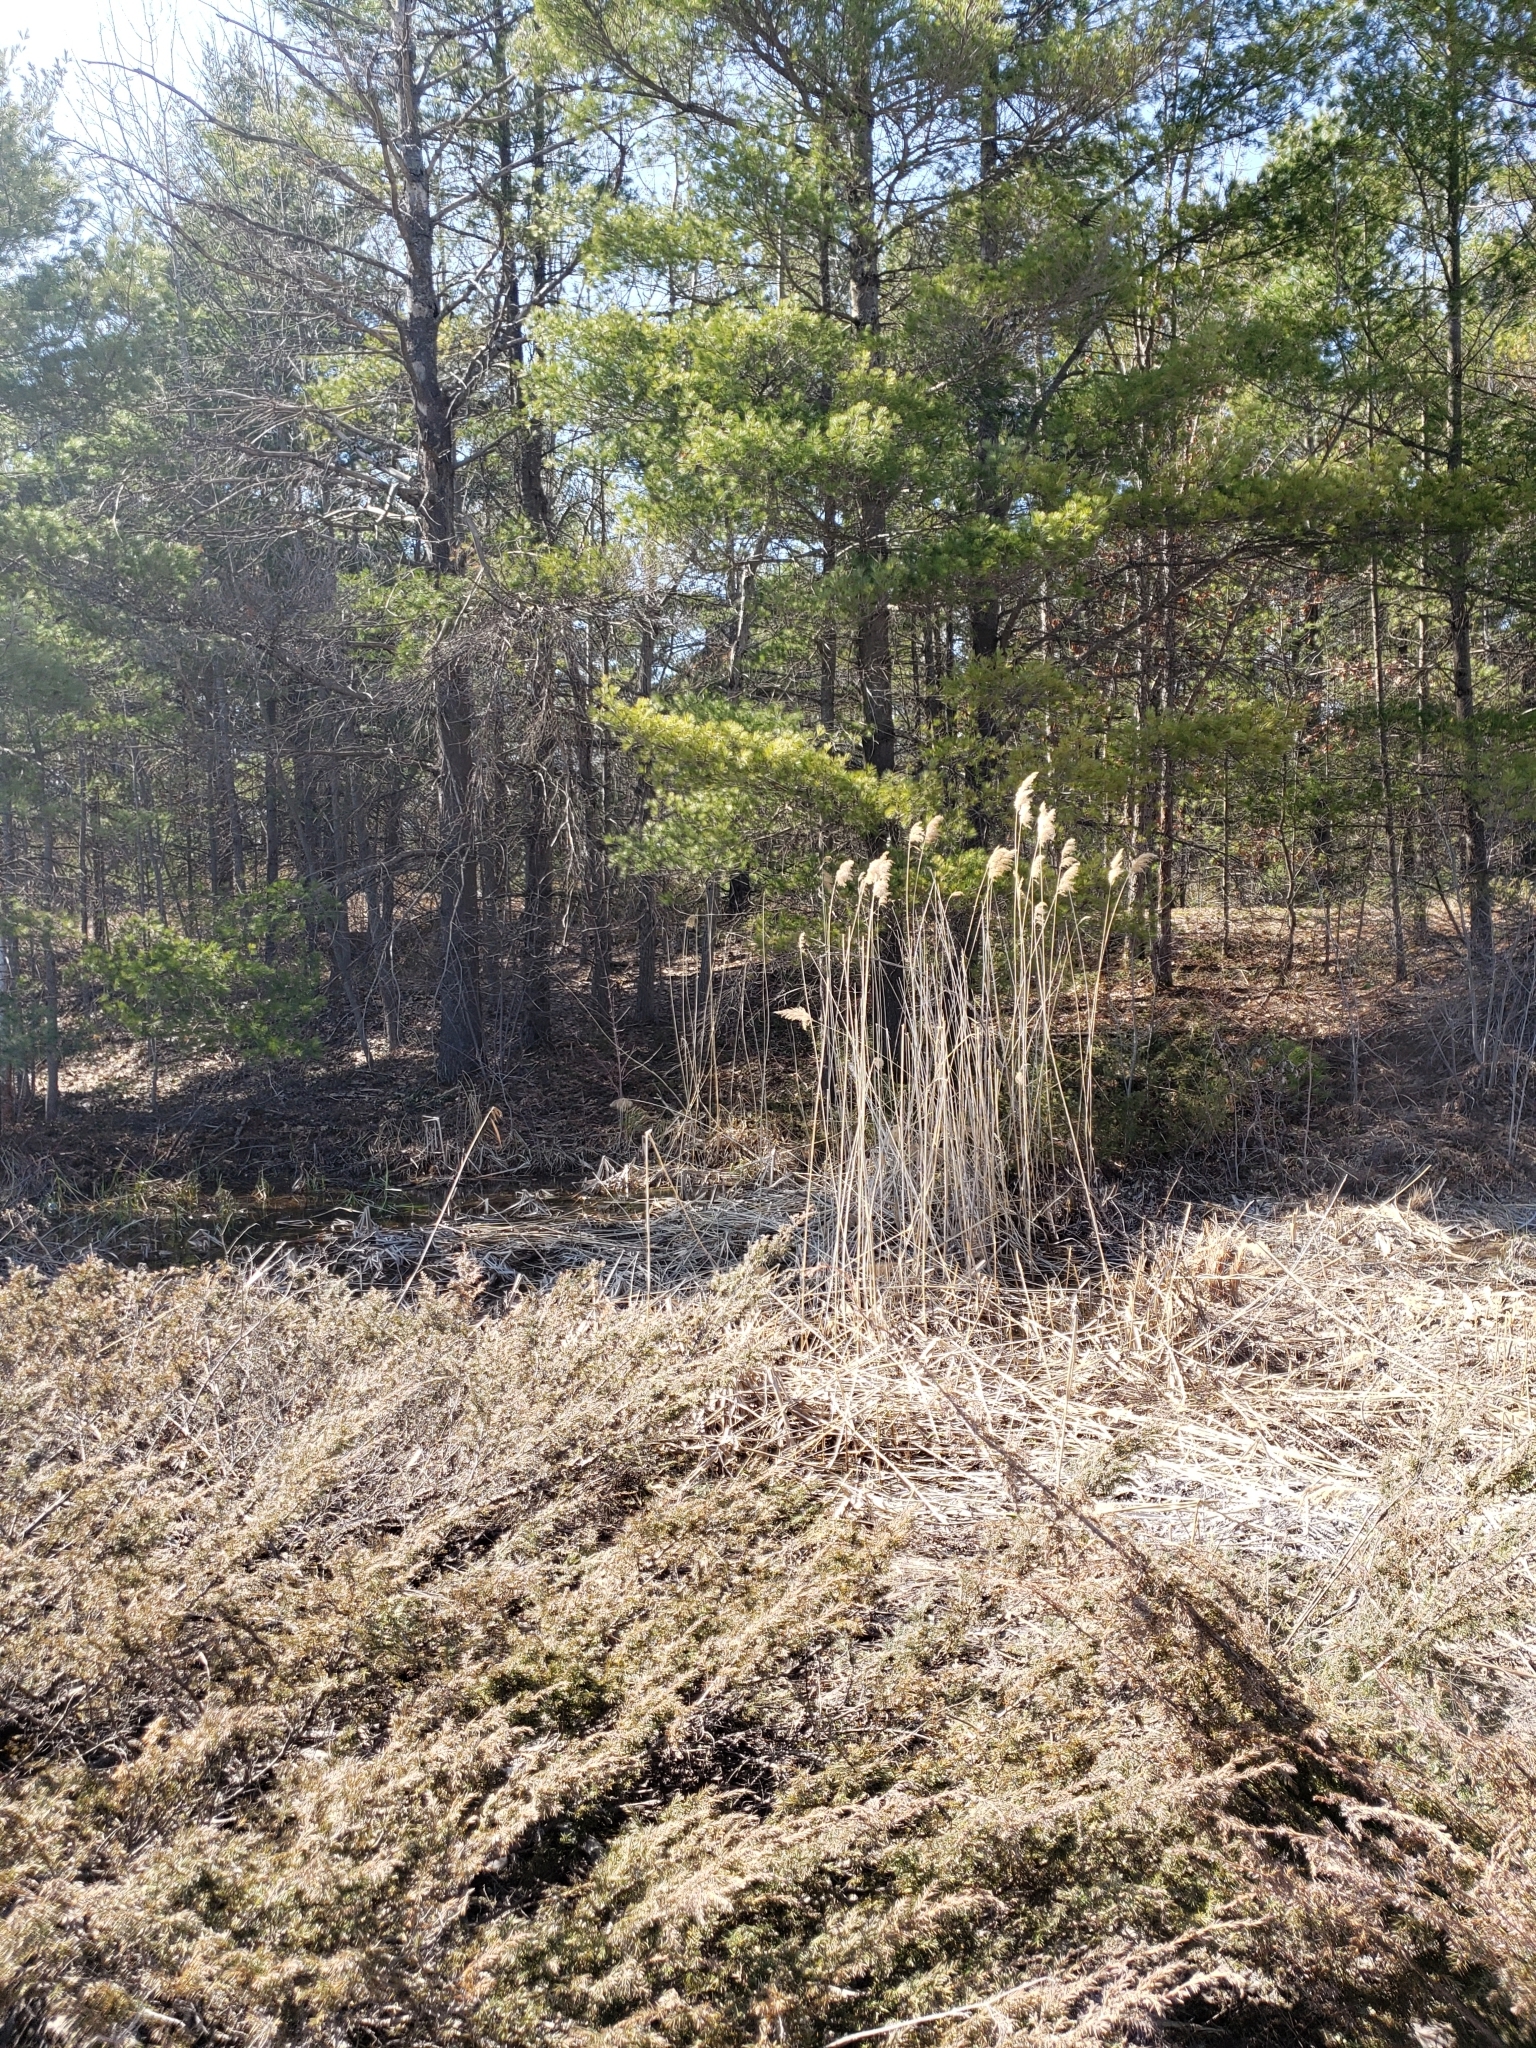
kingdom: Plantae
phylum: Tracheophyta
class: Liliopsida
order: Poales
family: Poaceae
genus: Phragmites
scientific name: Phragmites australis
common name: Common reed
